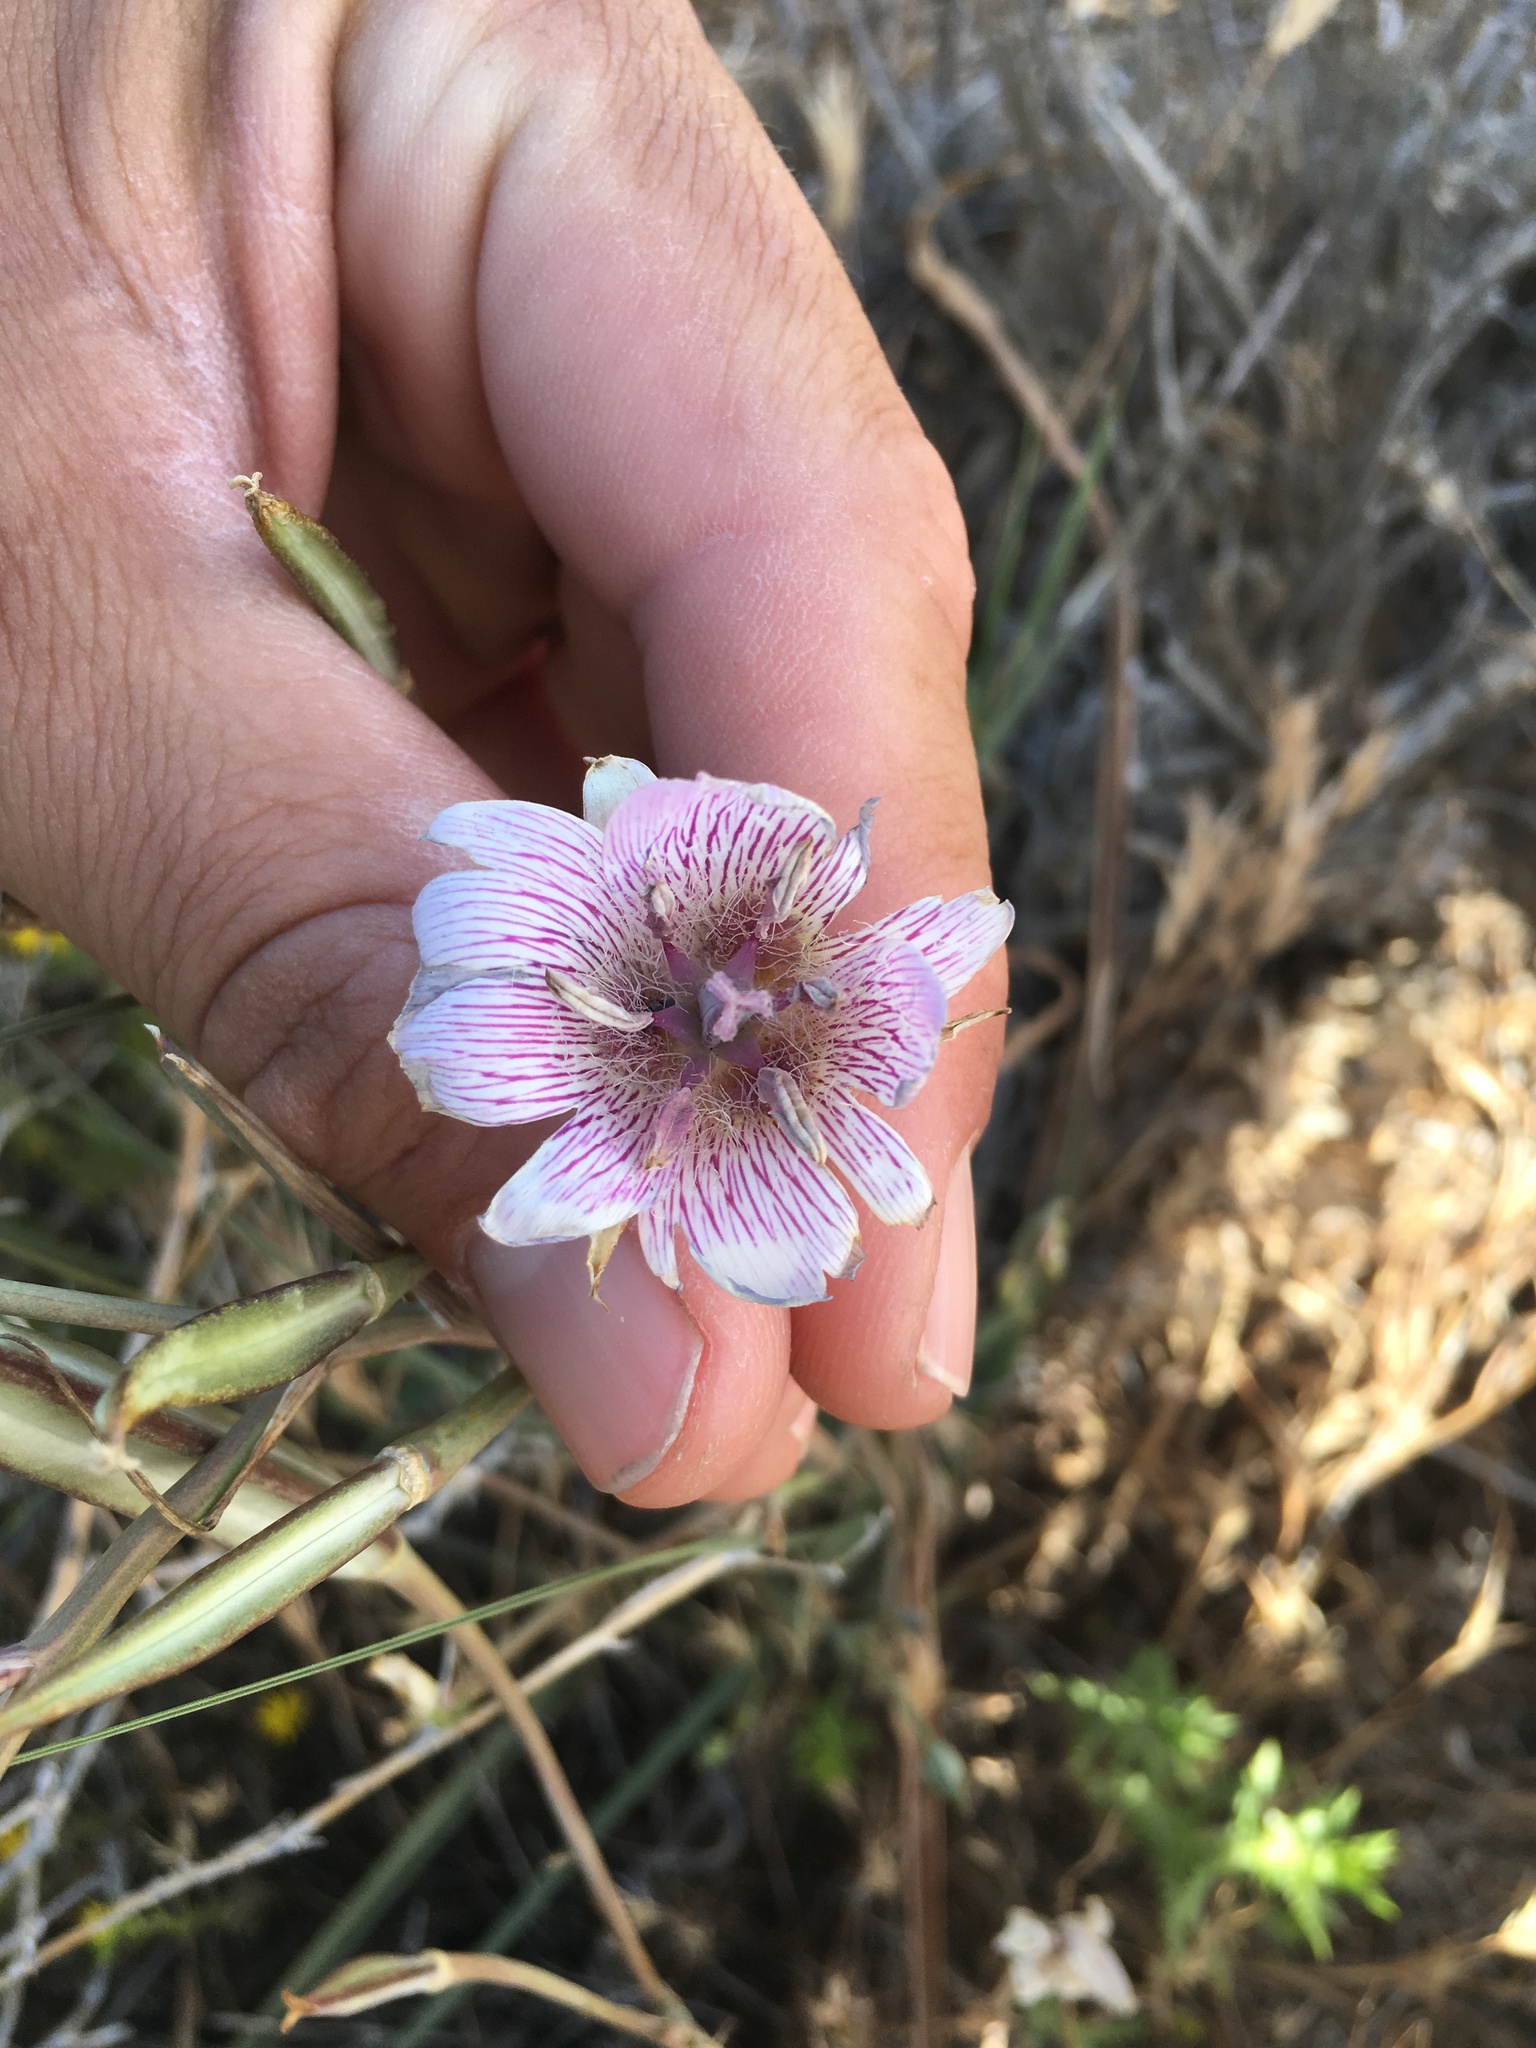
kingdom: Plantae
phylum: Tracheophyta
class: Liliopsida
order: Liliales
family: Liliaceae
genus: Calochortus
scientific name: Calochortus striatus
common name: Alkali mariposa-lily
